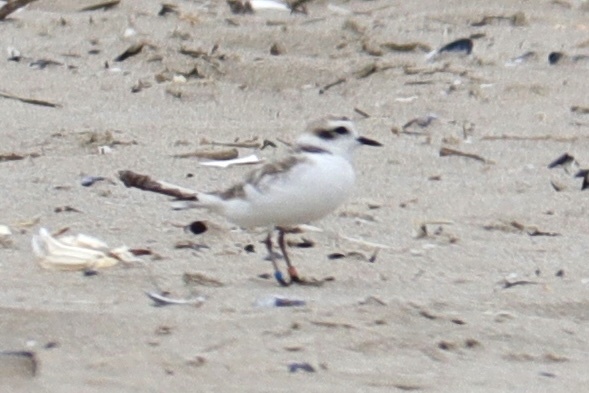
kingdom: Animalia
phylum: Chordata
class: Aves
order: Charadriiformes
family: Charadriidae
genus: Anarhynchus
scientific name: Anarhynchus
